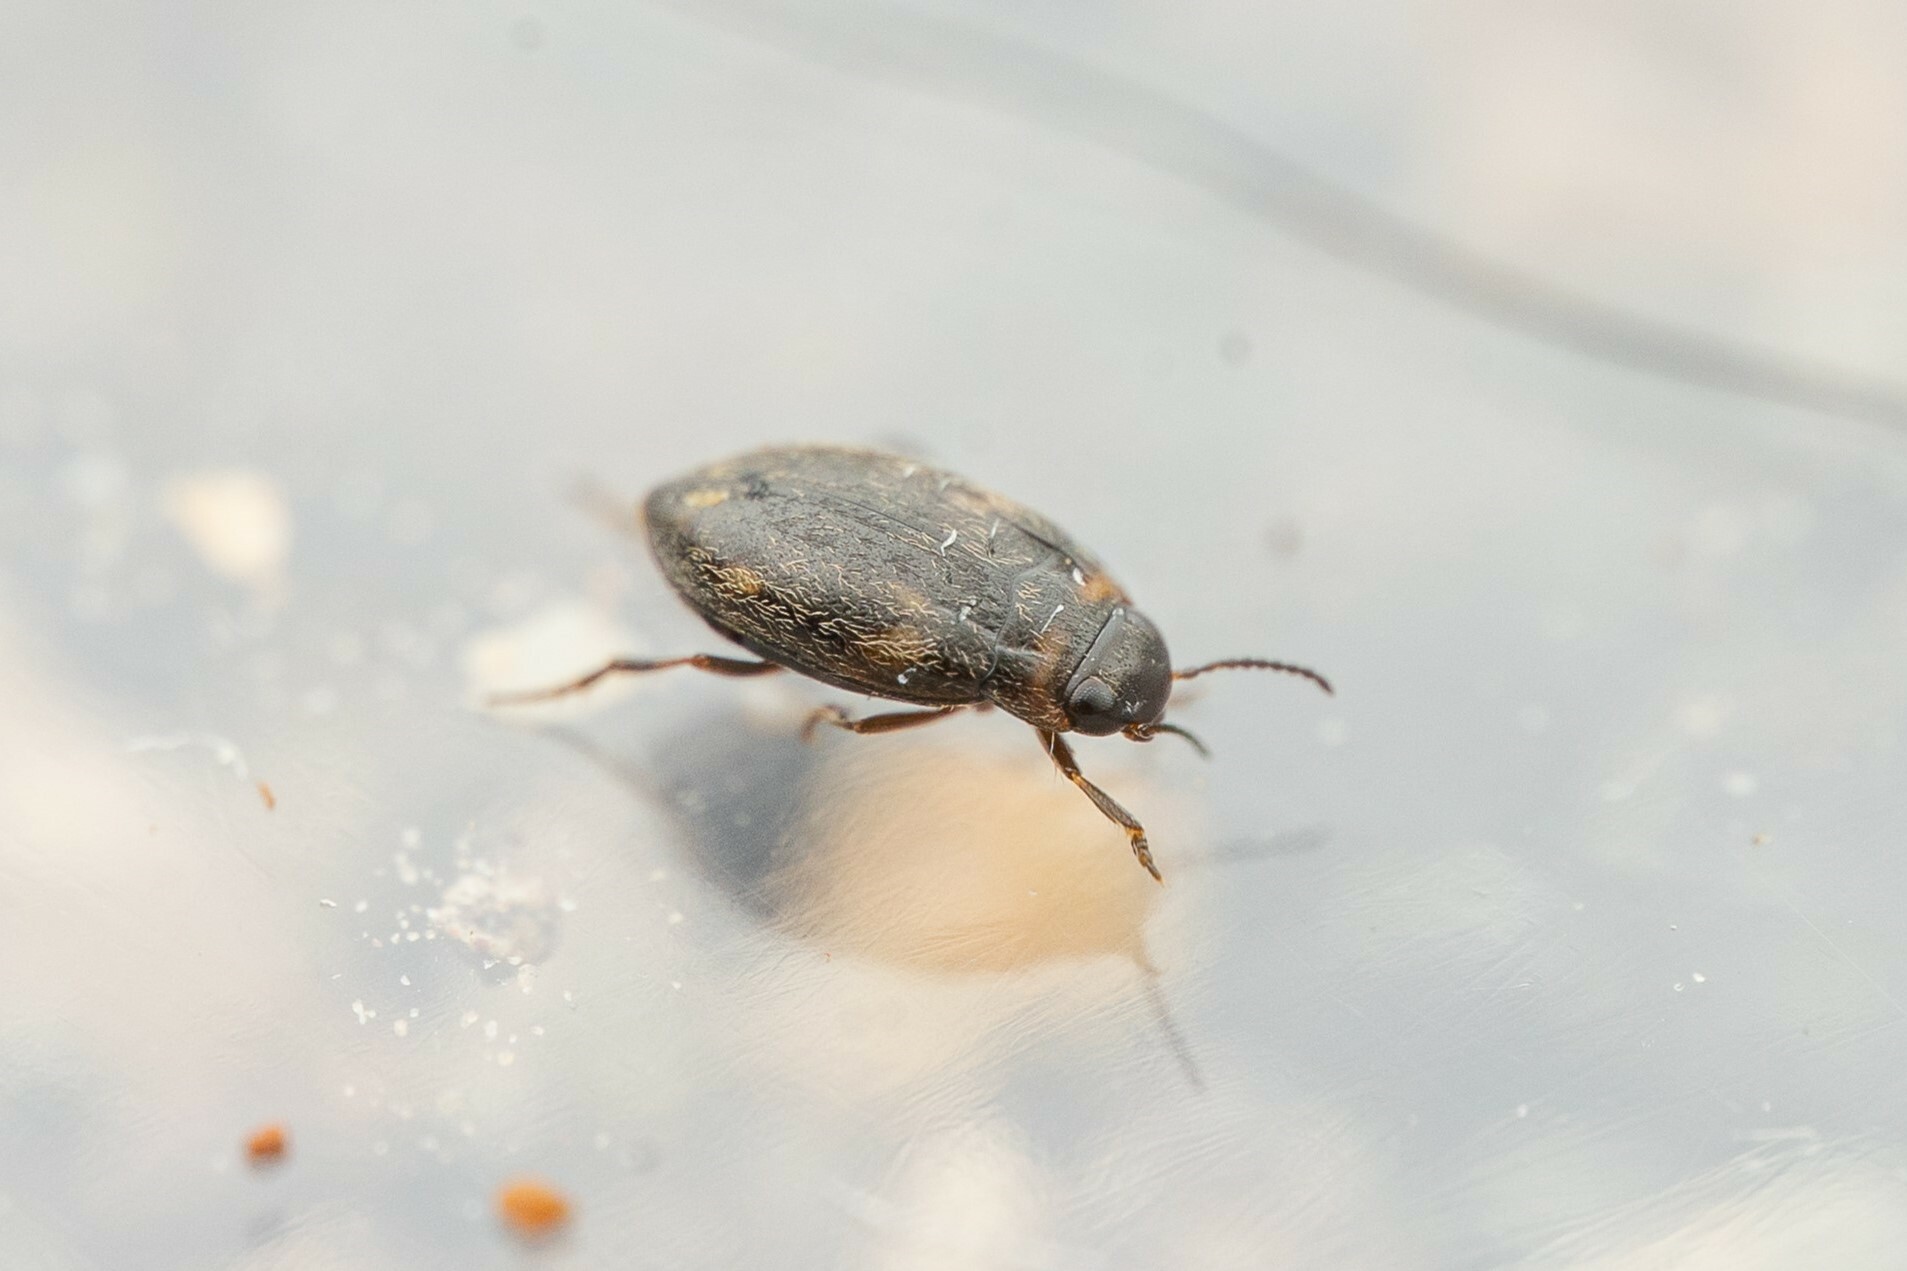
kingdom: Animalia
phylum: Arthropoda
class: Insecta
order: Coleoptera
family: Dytiscidae
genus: Nectoboreus
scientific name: Nectoboreus aequinoctialis
